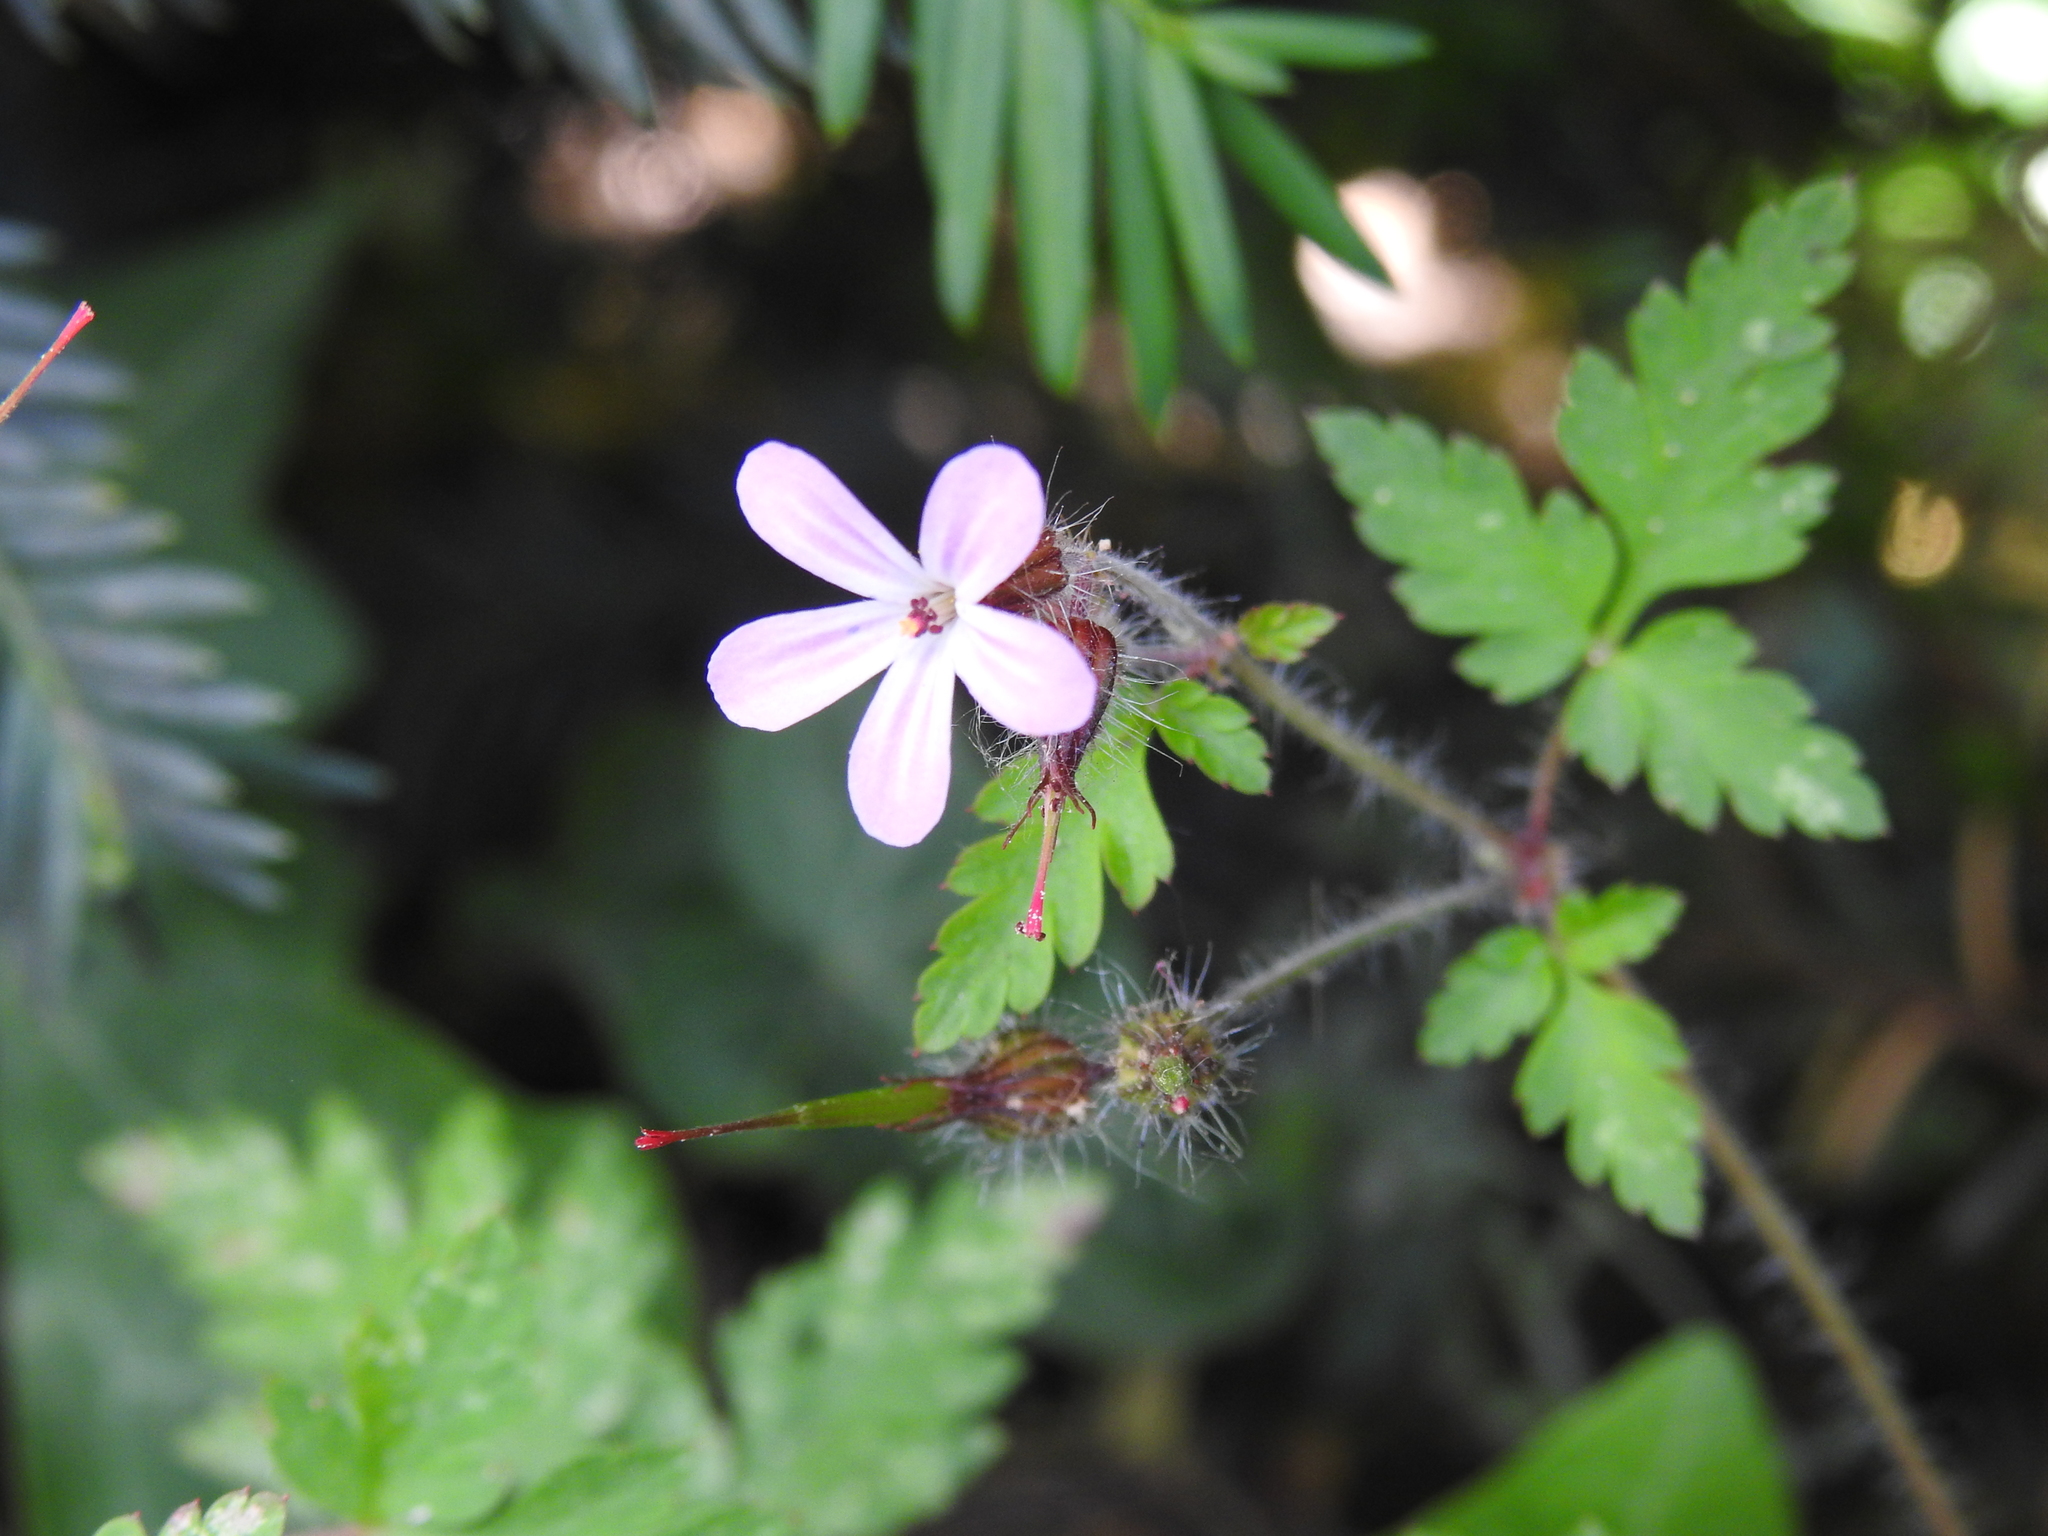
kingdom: Plantae
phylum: Tracheophyta
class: Magnoliopsida
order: Geraniales
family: Geraniaceae
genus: Geranium
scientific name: Geranium robertianum
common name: Herb-robert
